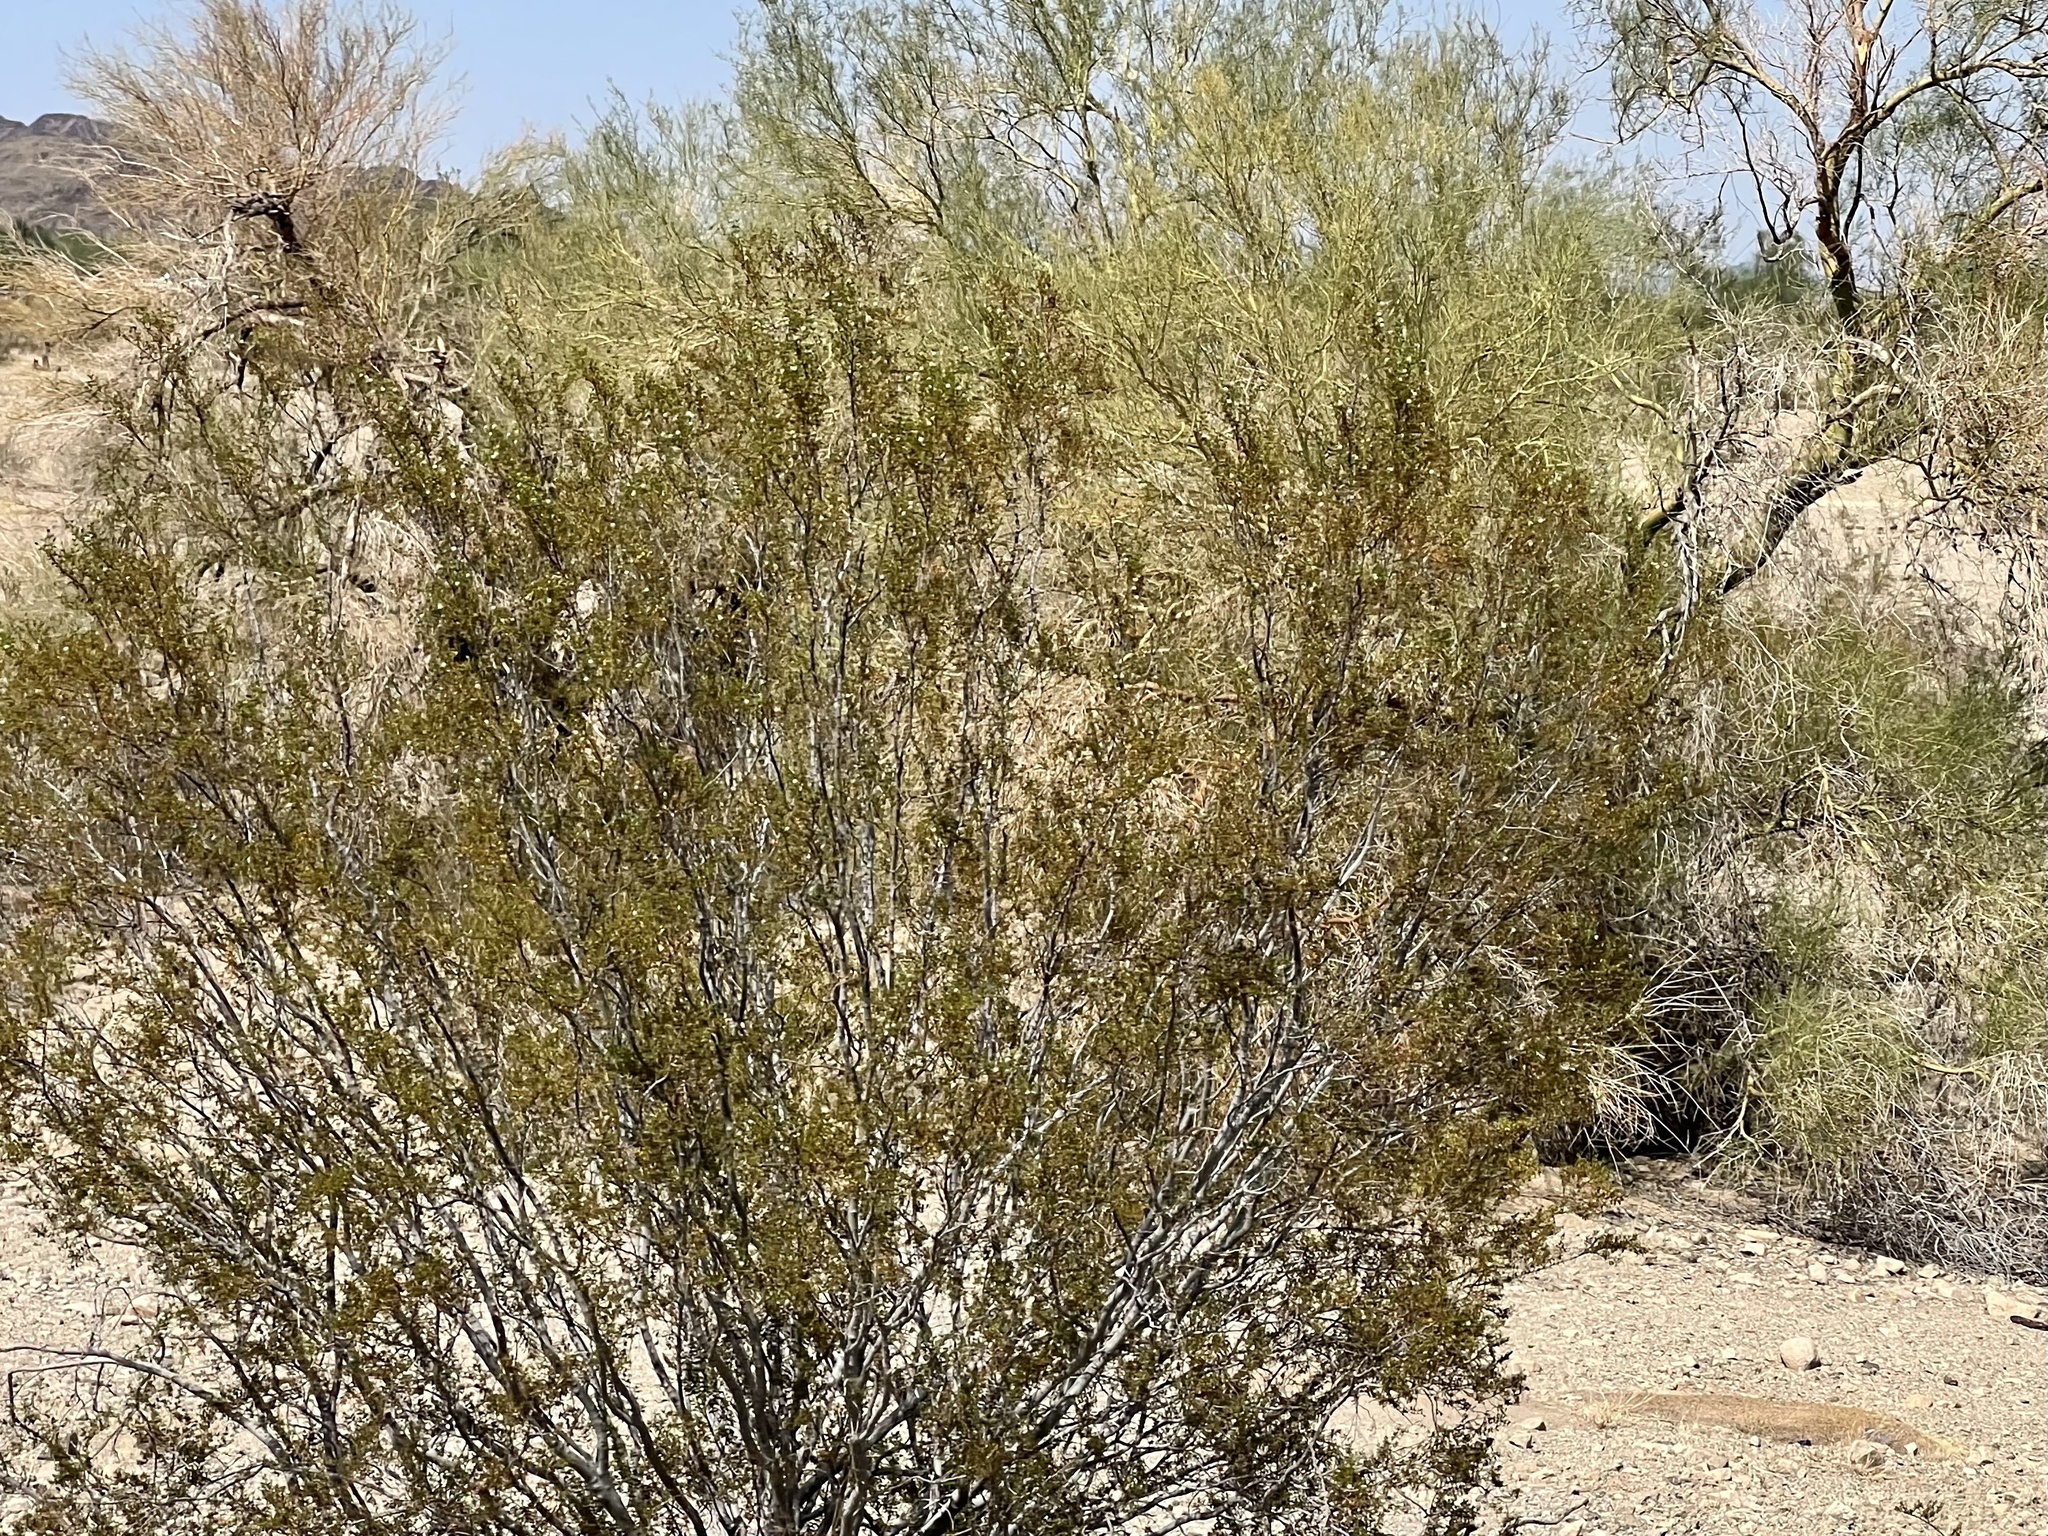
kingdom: Plantae
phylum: Tracheophyta
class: Magnoliopsida
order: Zygophyllales
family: Zygophyllaceae
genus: Larrea
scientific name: Larrea tridentata
